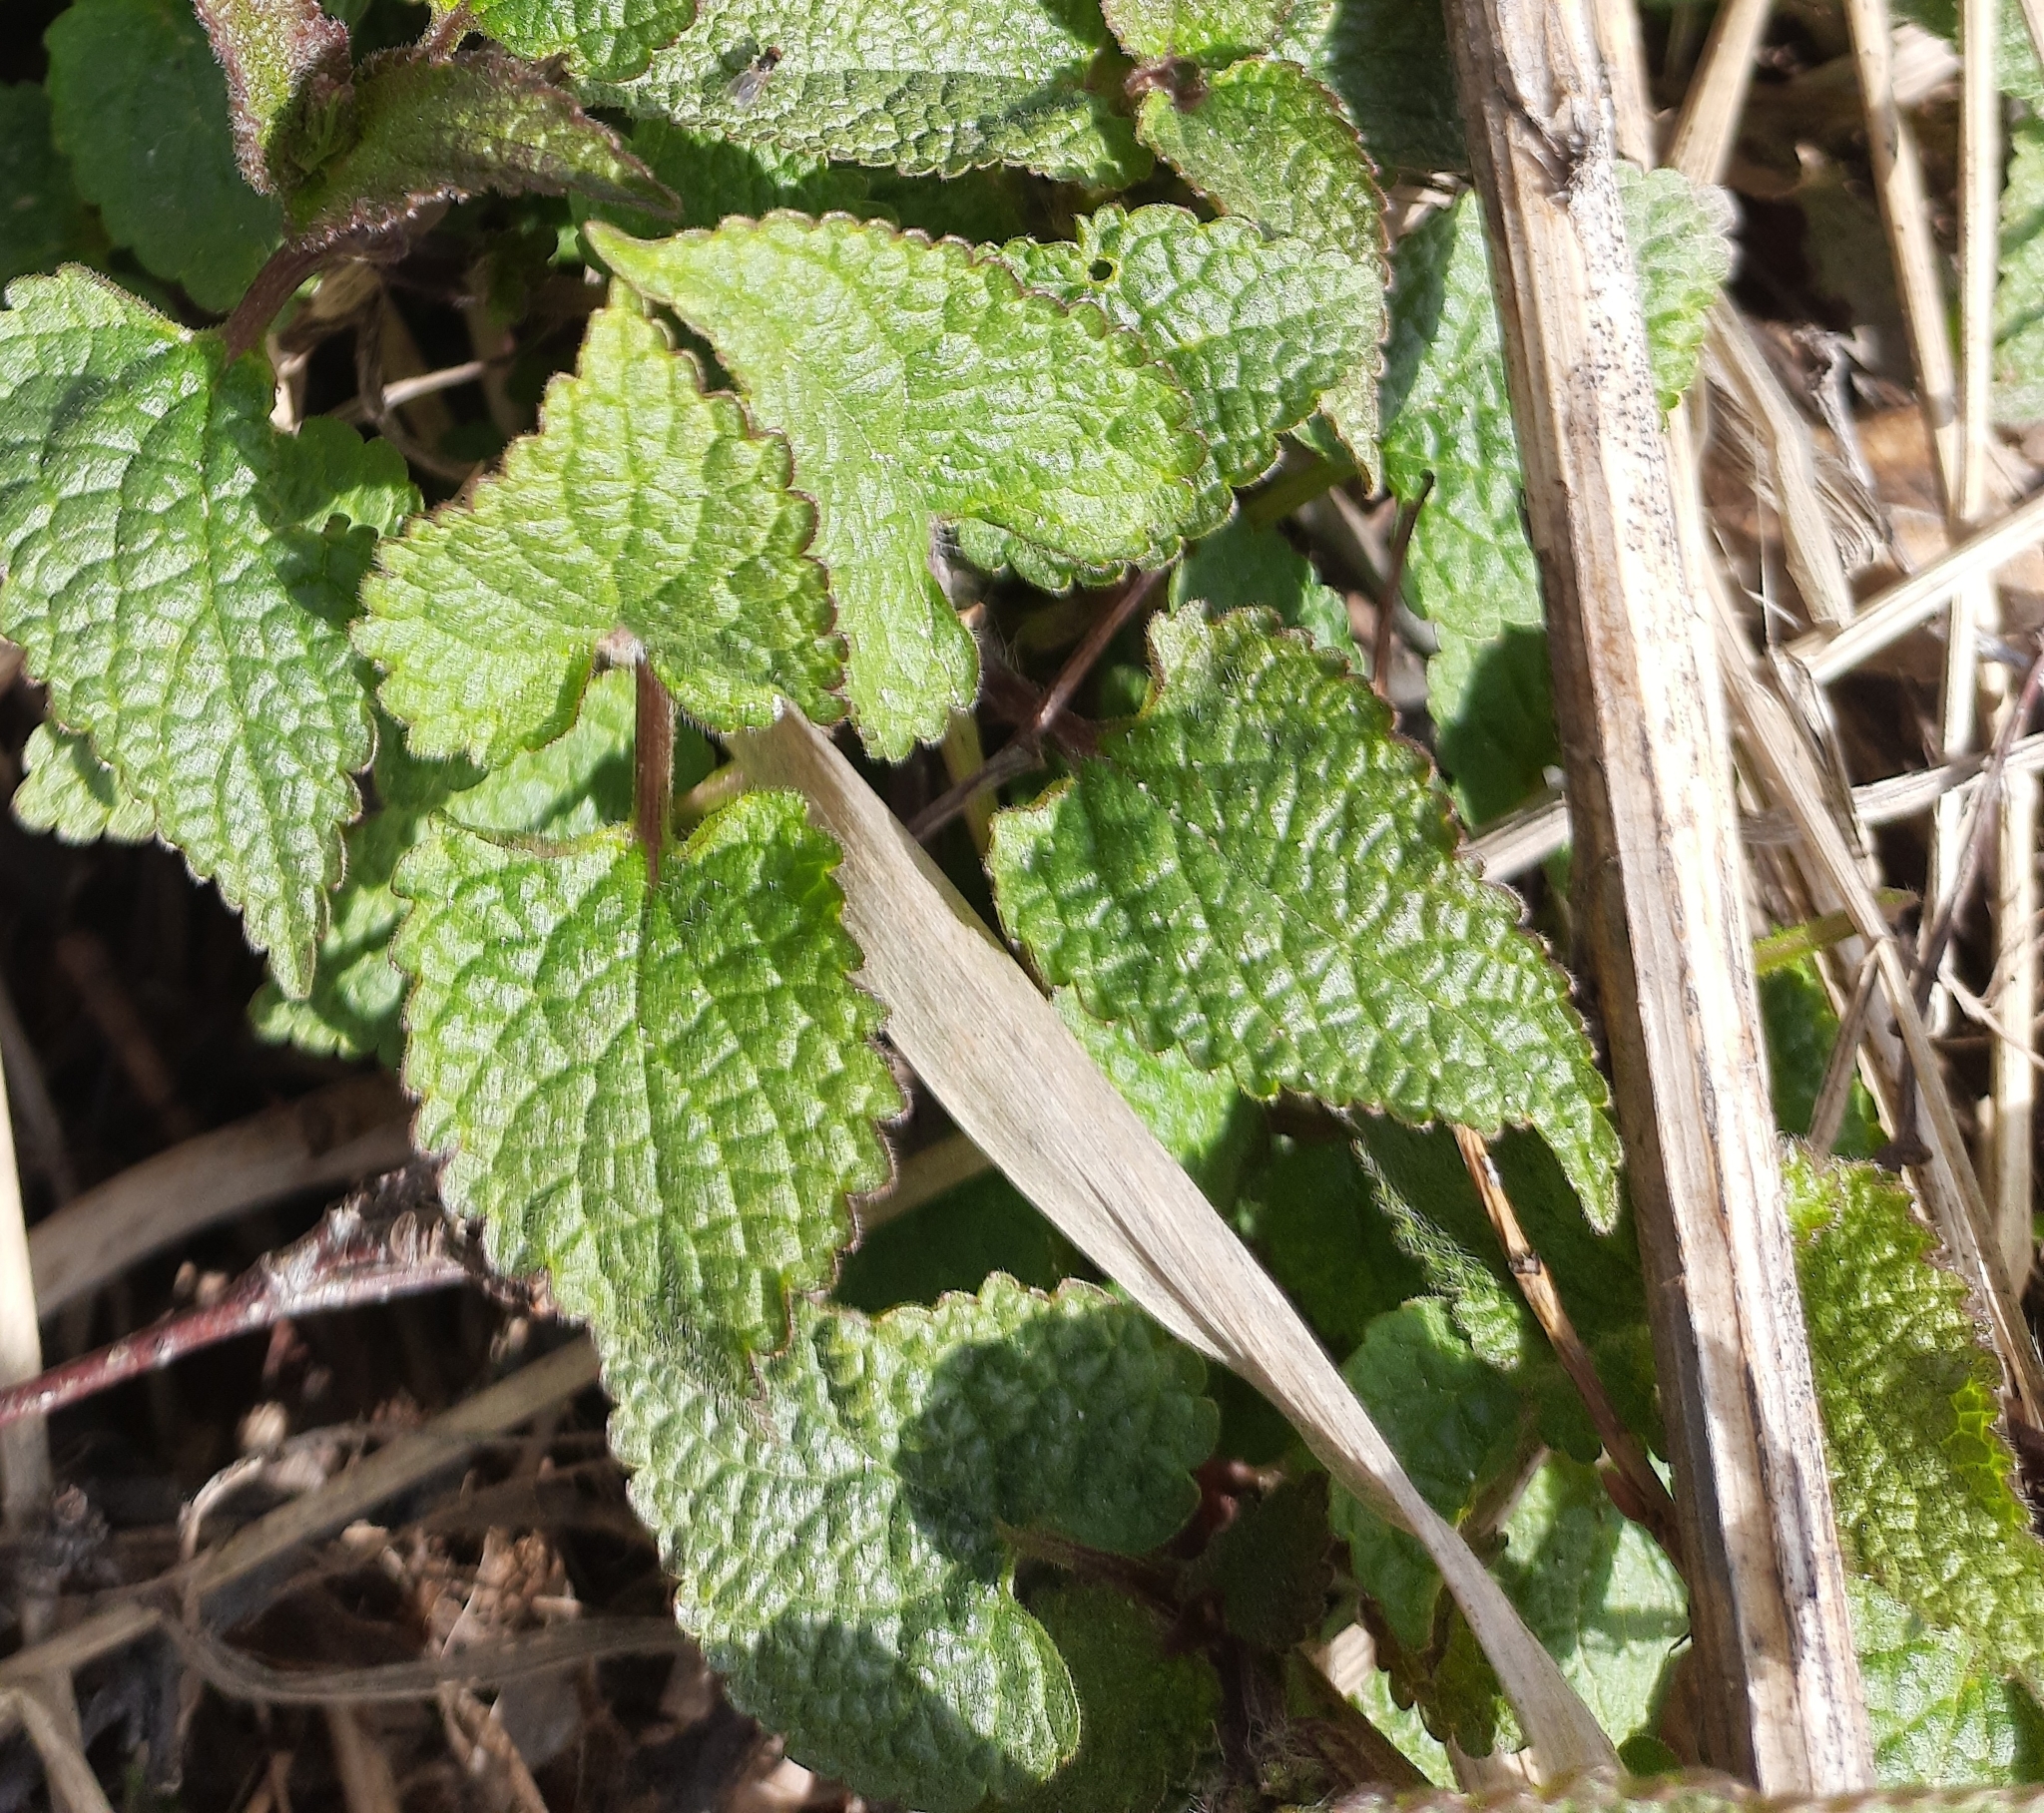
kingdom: Plantae
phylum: Tracheophyta
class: Magnoliopsida
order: Lamiales
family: Lamiaceae
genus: Lamium
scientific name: Lamium album
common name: White dead-nettle
